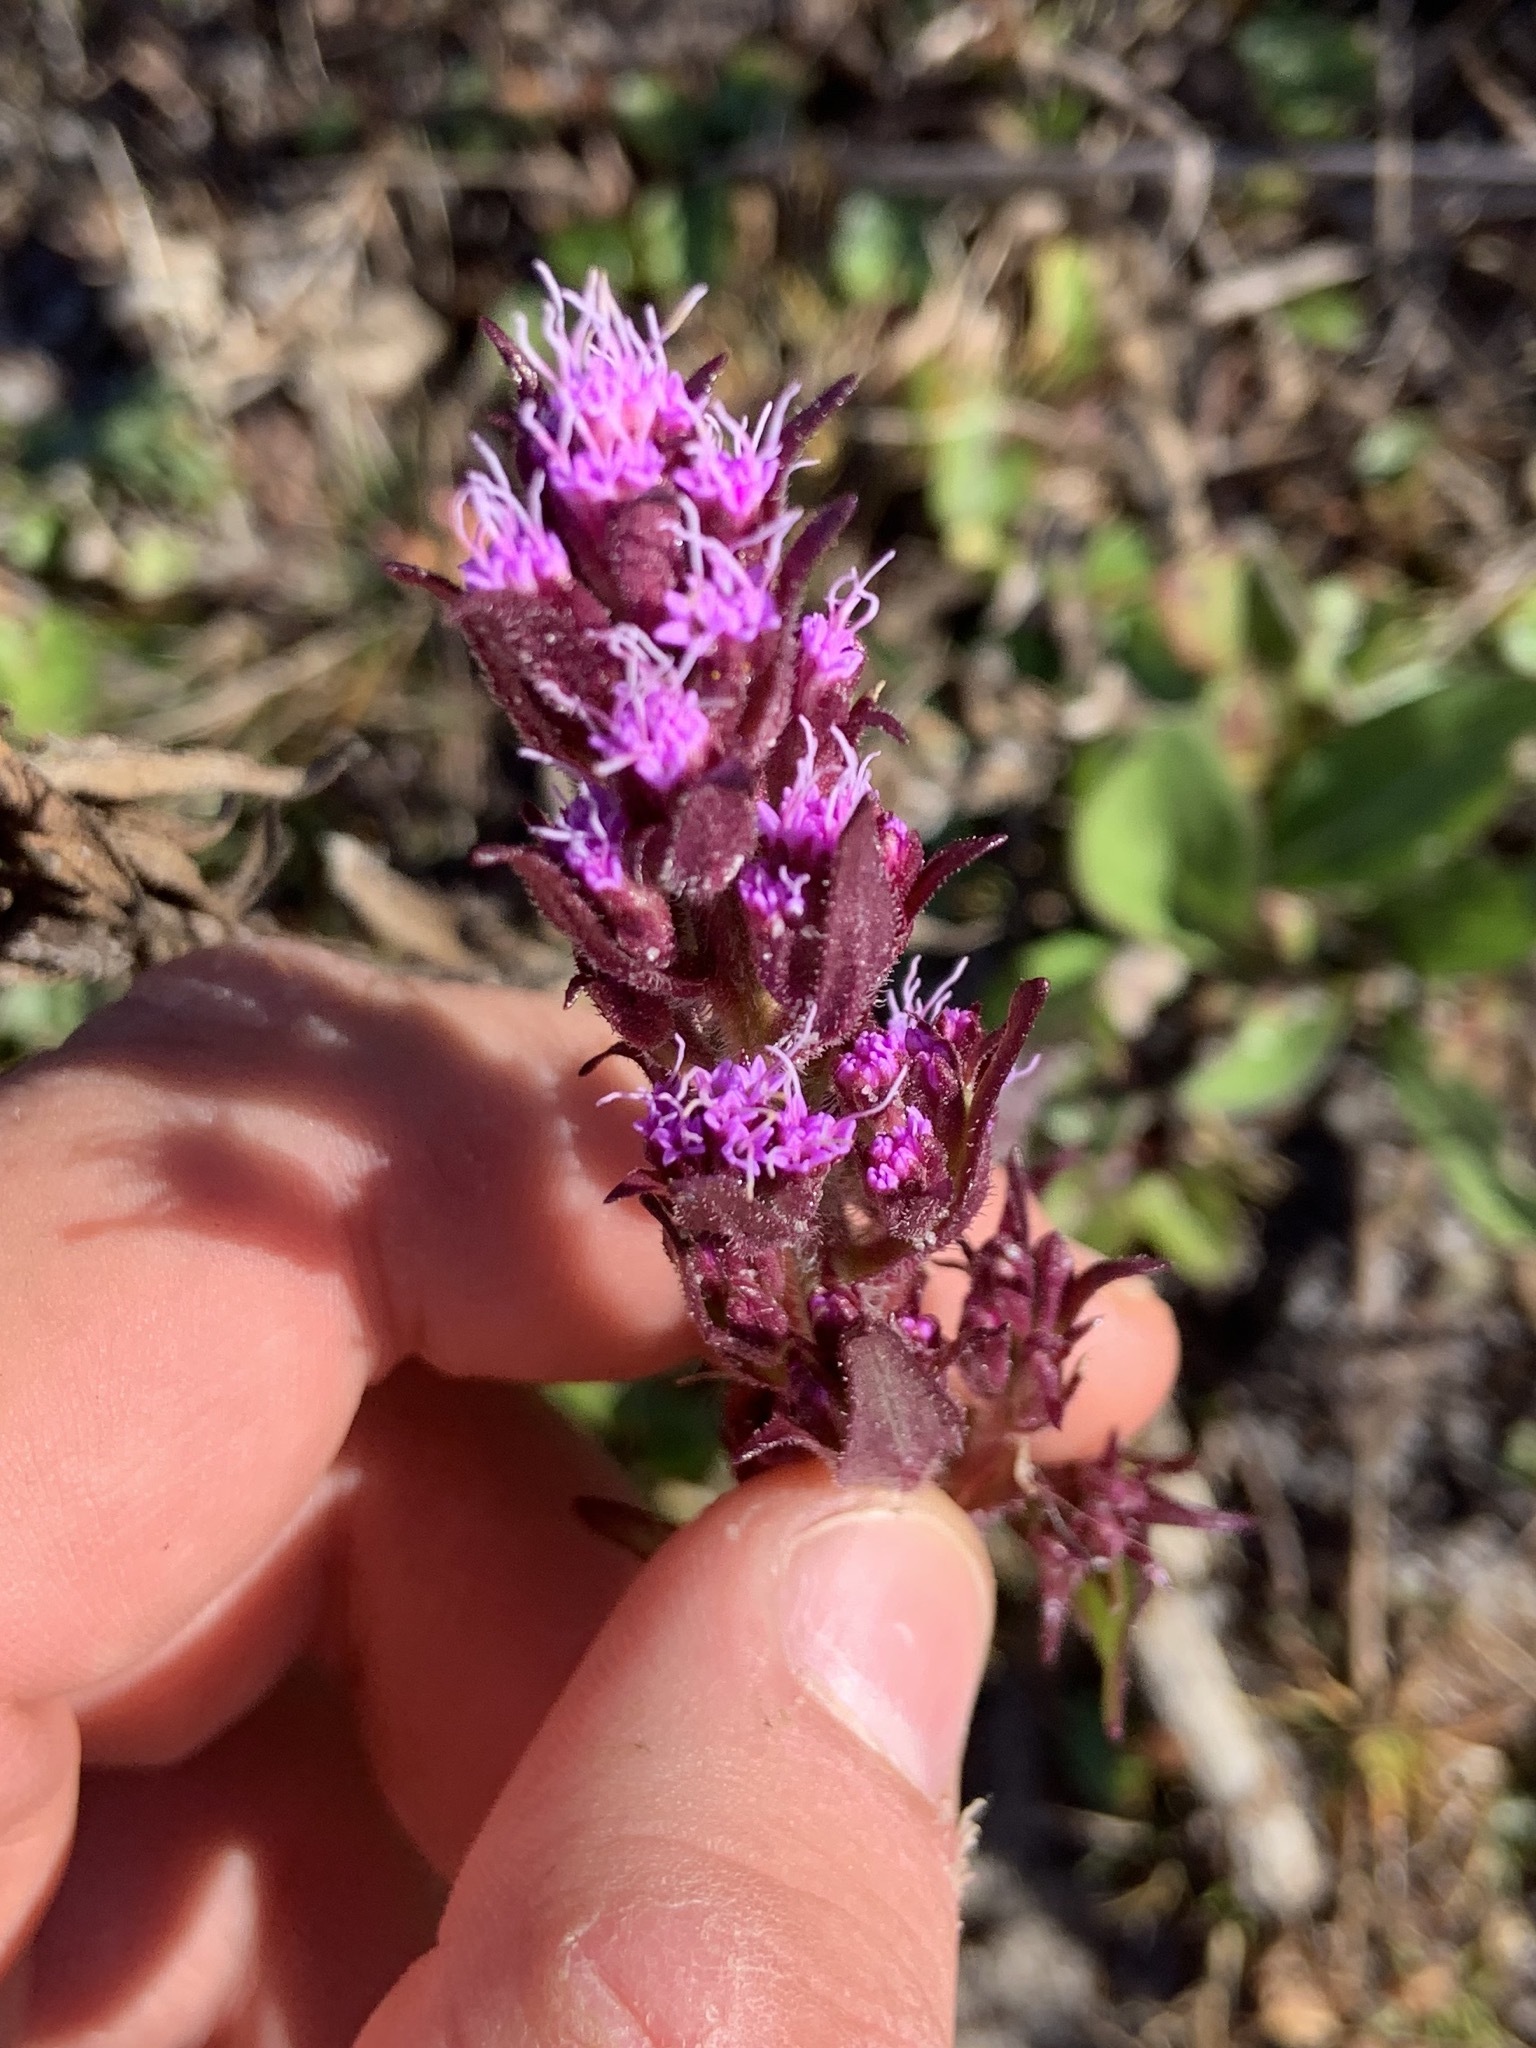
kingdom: Plantae
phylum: Tracheophyta
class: Magnoliopsida
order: Asterales
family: Asteraceae
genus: Carphephorus
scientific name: Carphephorus paniculatus
